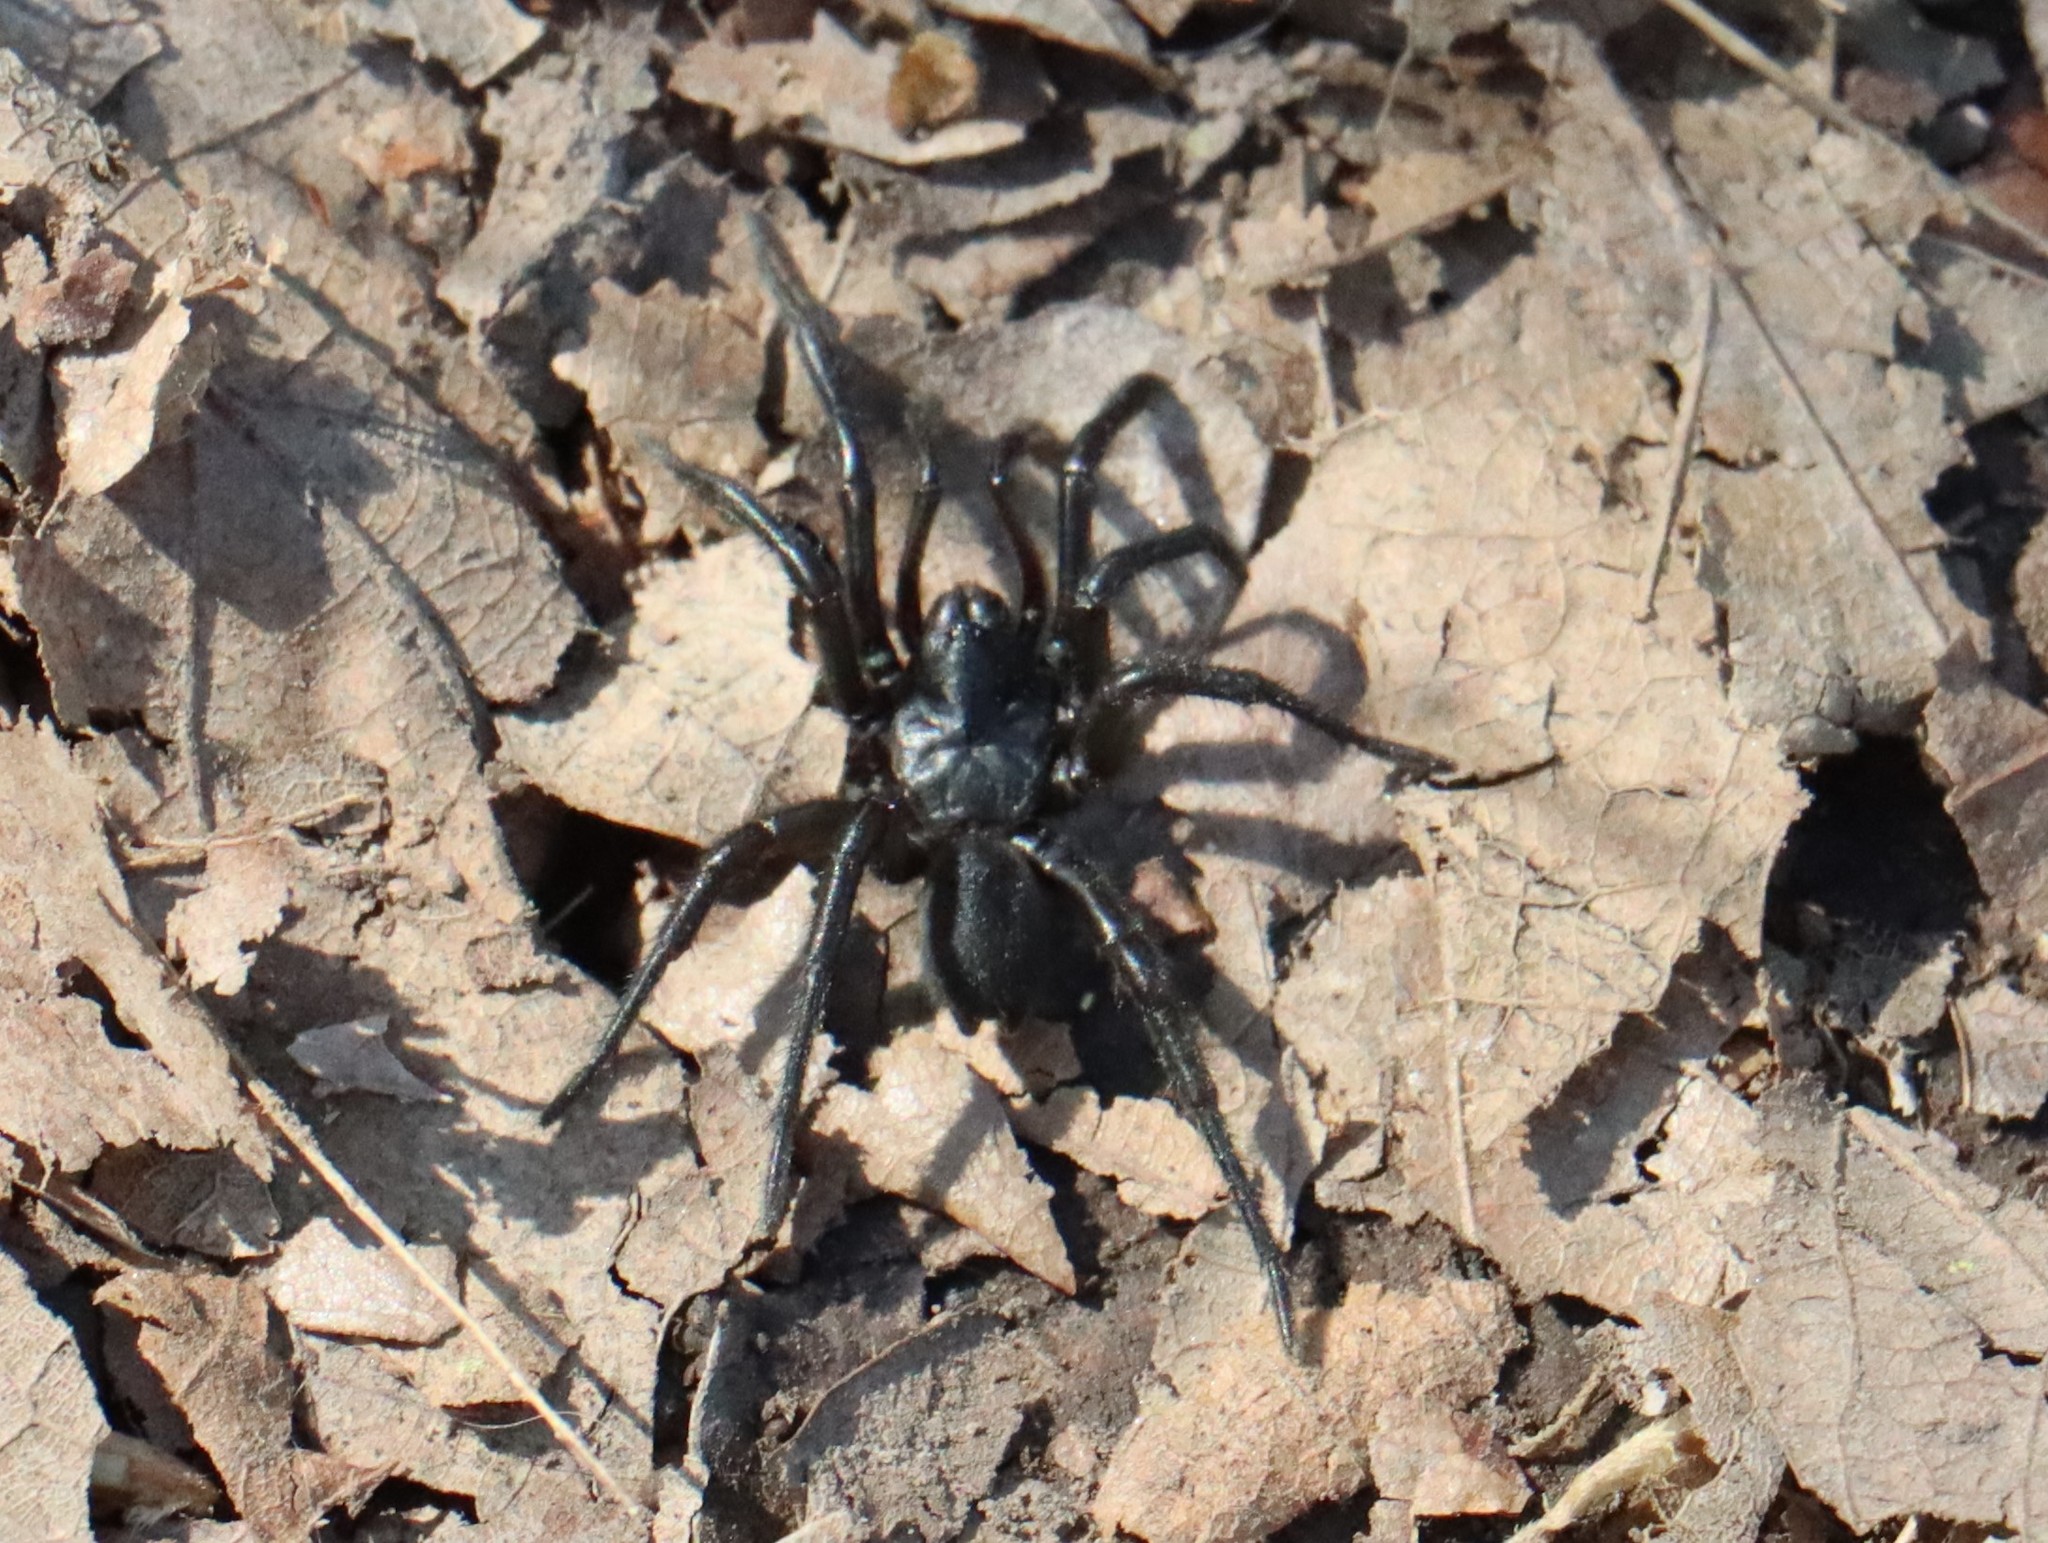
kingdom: Animalia
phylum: Arthropoda
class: Arachnida
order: Araneae
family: Antrodiaetidae
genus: Antrodiaetus
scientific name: Antrodiaetus unicolor
